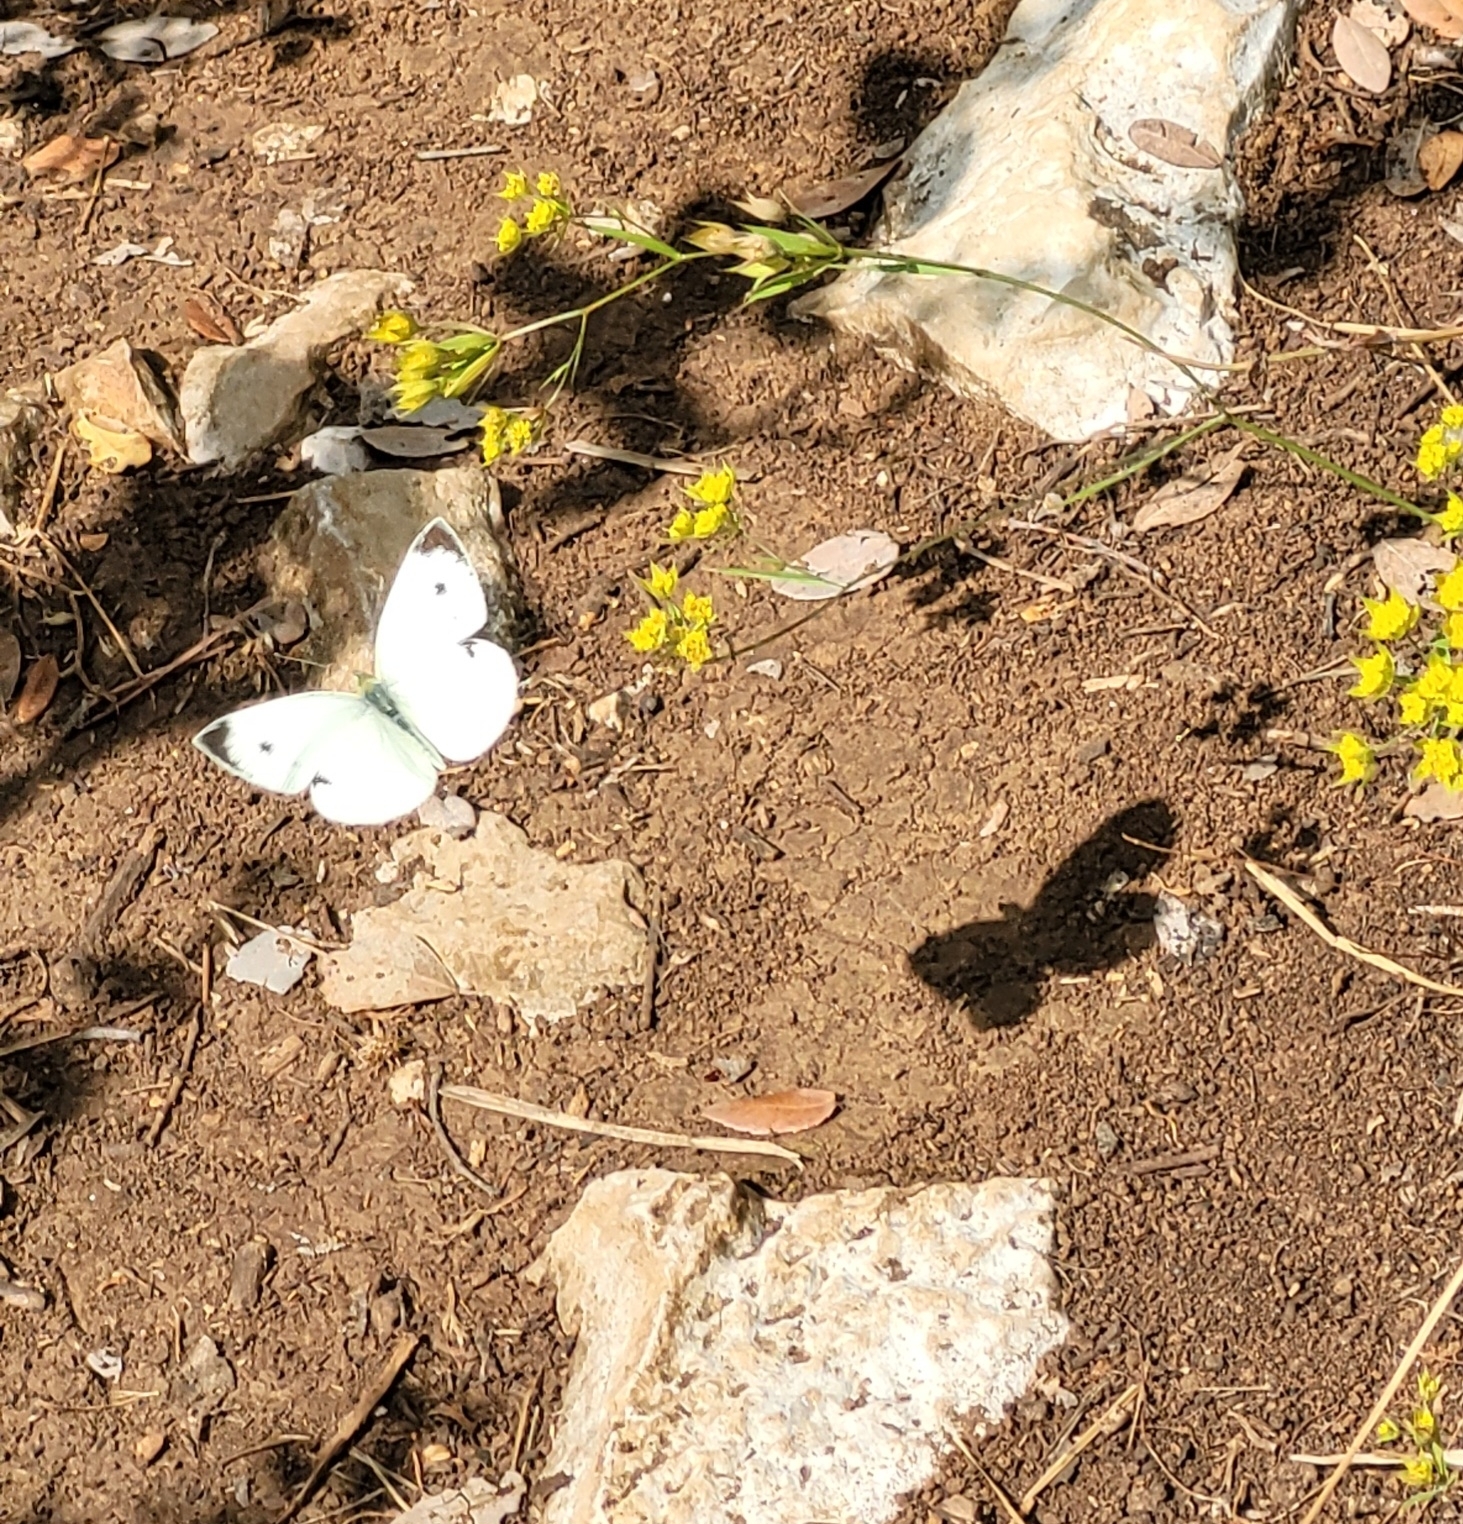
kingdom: Animalia
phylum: Arthropoda
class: Insecta
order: Lepidoptera
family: Pieridae
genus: Pieris
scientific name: Pieris mannii
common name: Southern small white
